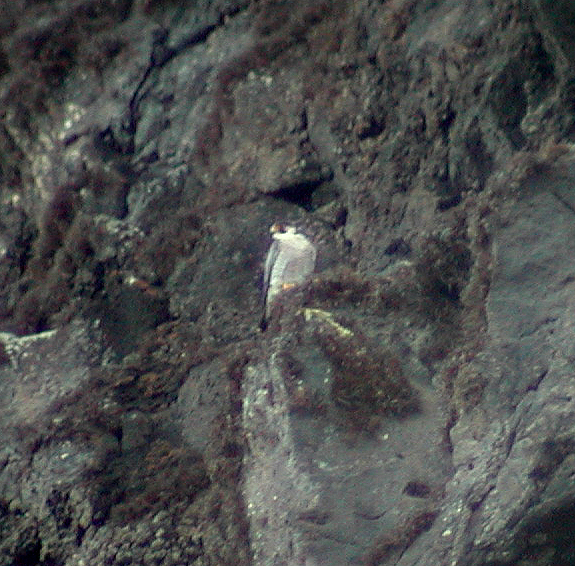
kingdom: Animalia
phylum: Chordata
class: Aves
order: Falconiformes
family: Falconidae
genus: Falco
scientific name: Falco peregrinus
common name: Peregrine falcon
